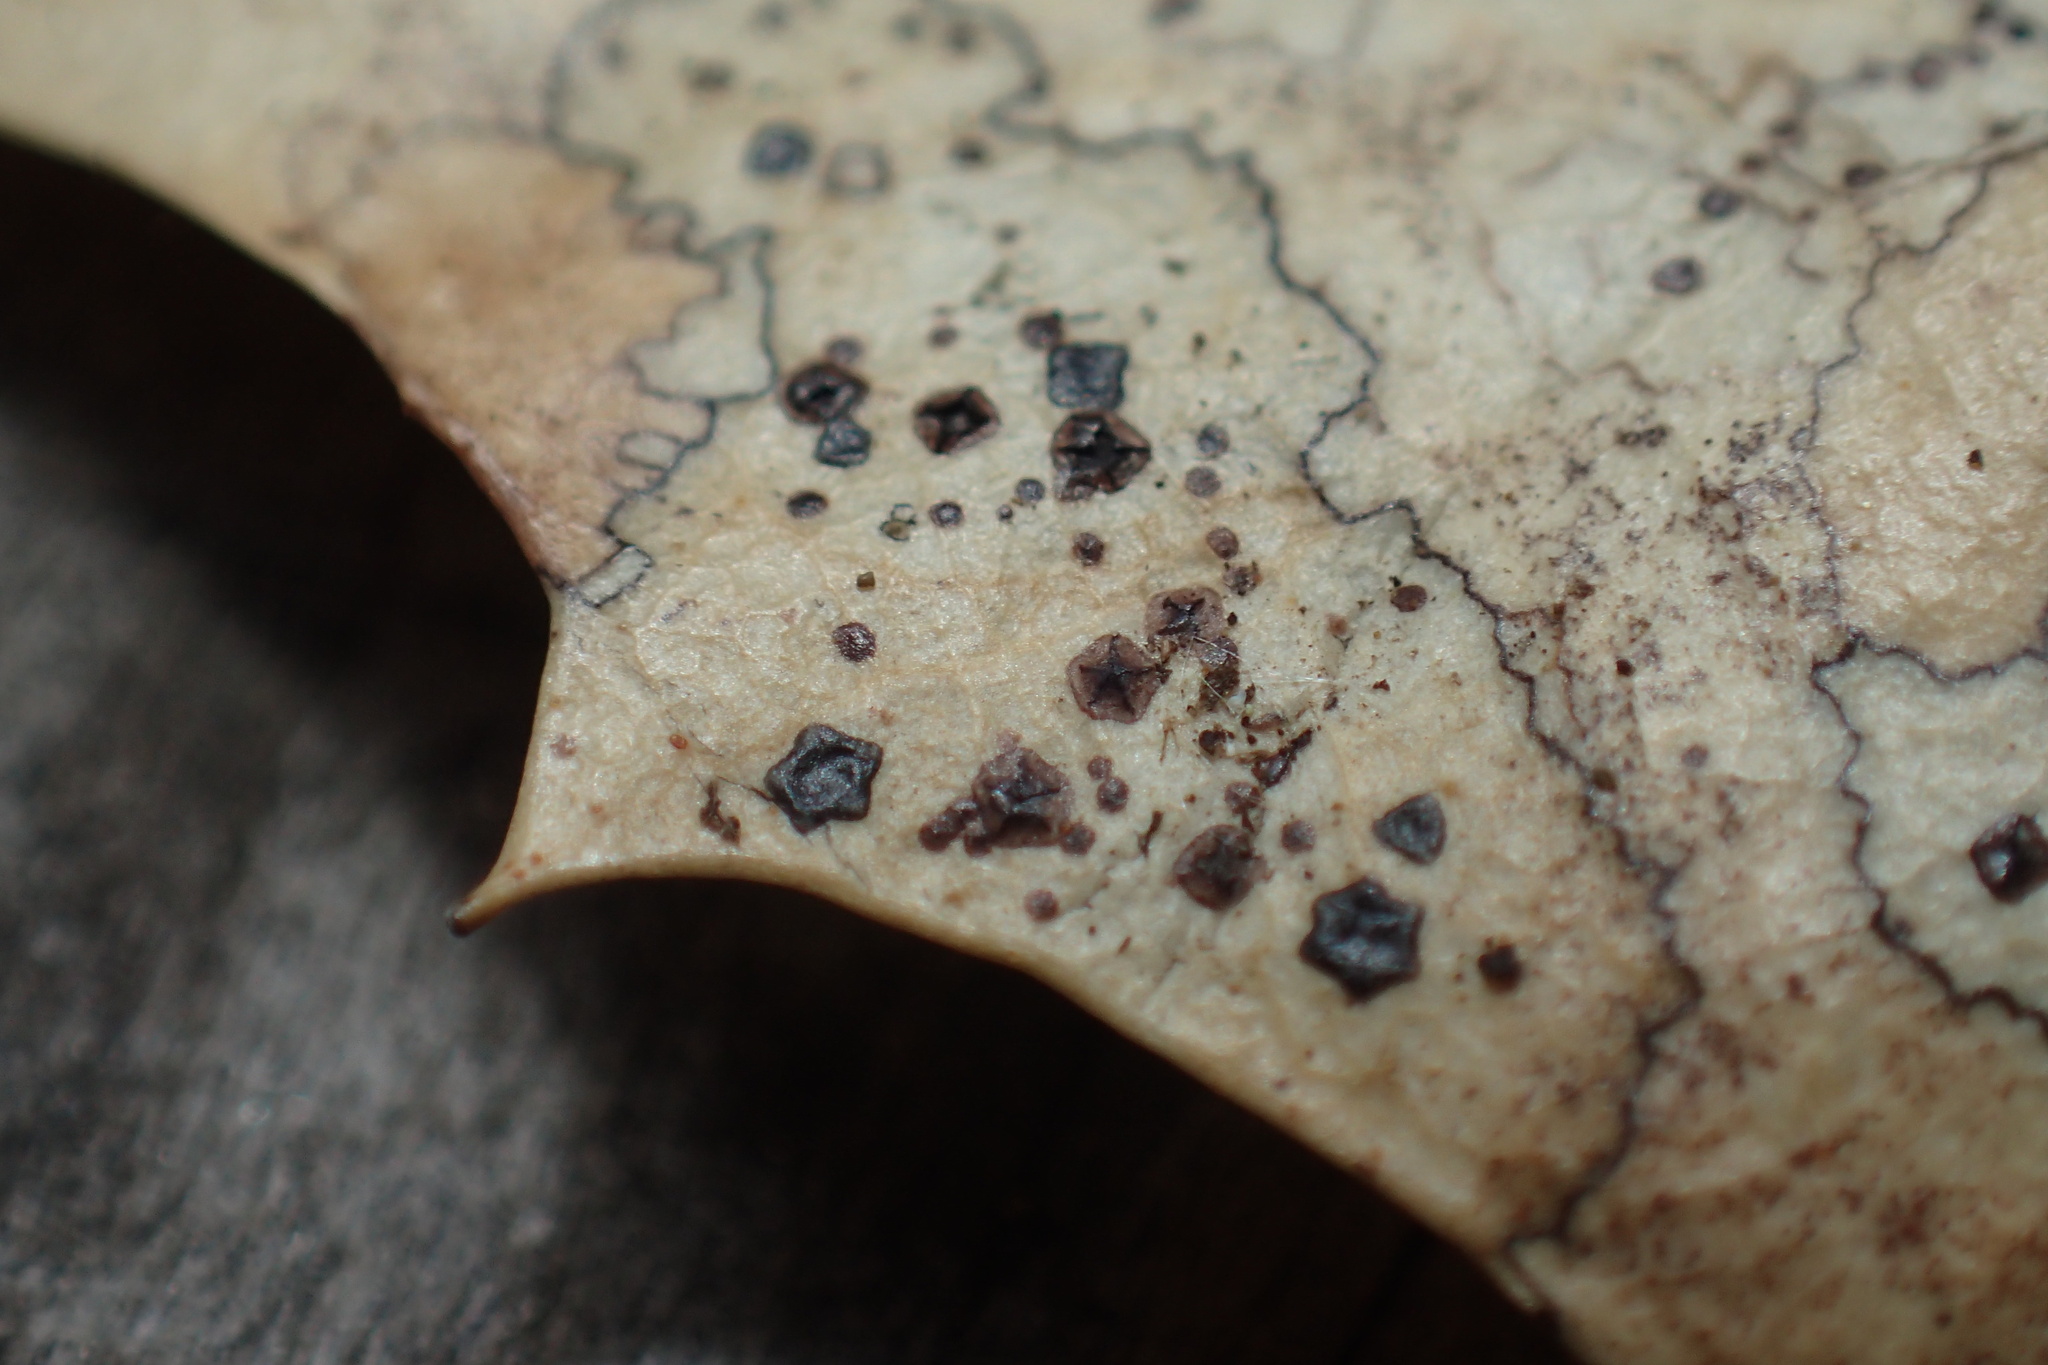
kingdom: Fungi
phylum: Ascomycota
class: Leotiomycetes
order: Rhytismatales
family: Rhytismataceae
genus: Coccomyces
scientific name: Coccomyces dentatus
